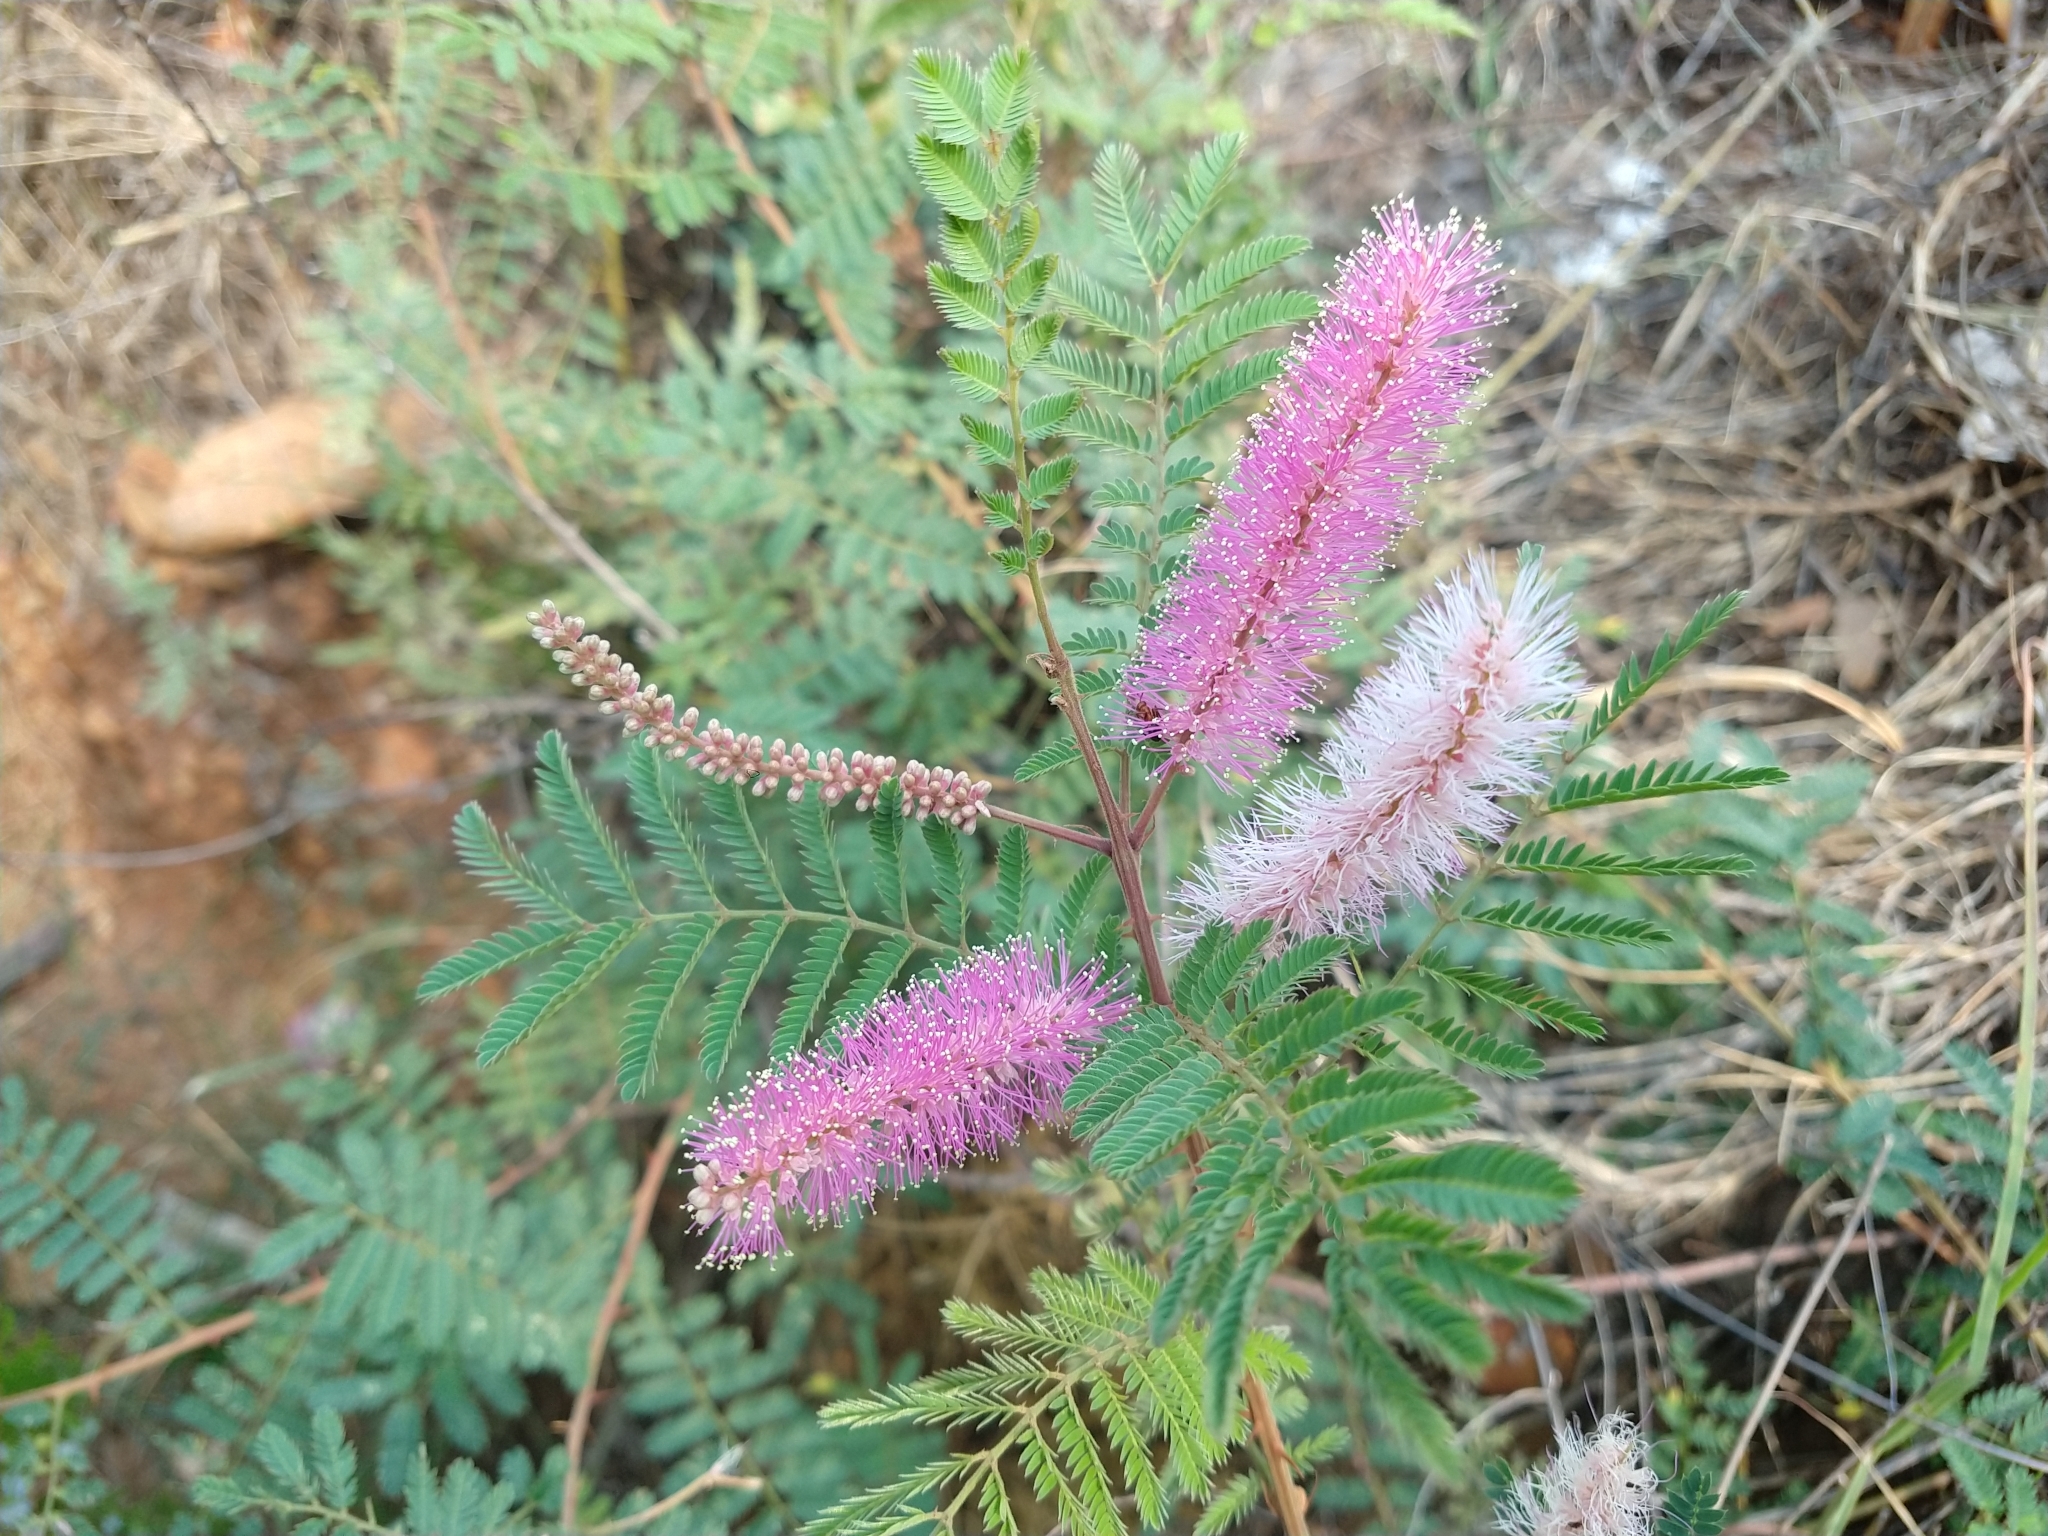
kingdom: Plantae
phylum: Tracheophyta
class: Magnoliopsida
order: Fabales
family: Fabaceae
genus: Mimosa
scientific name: Mimosa dysocarpa
